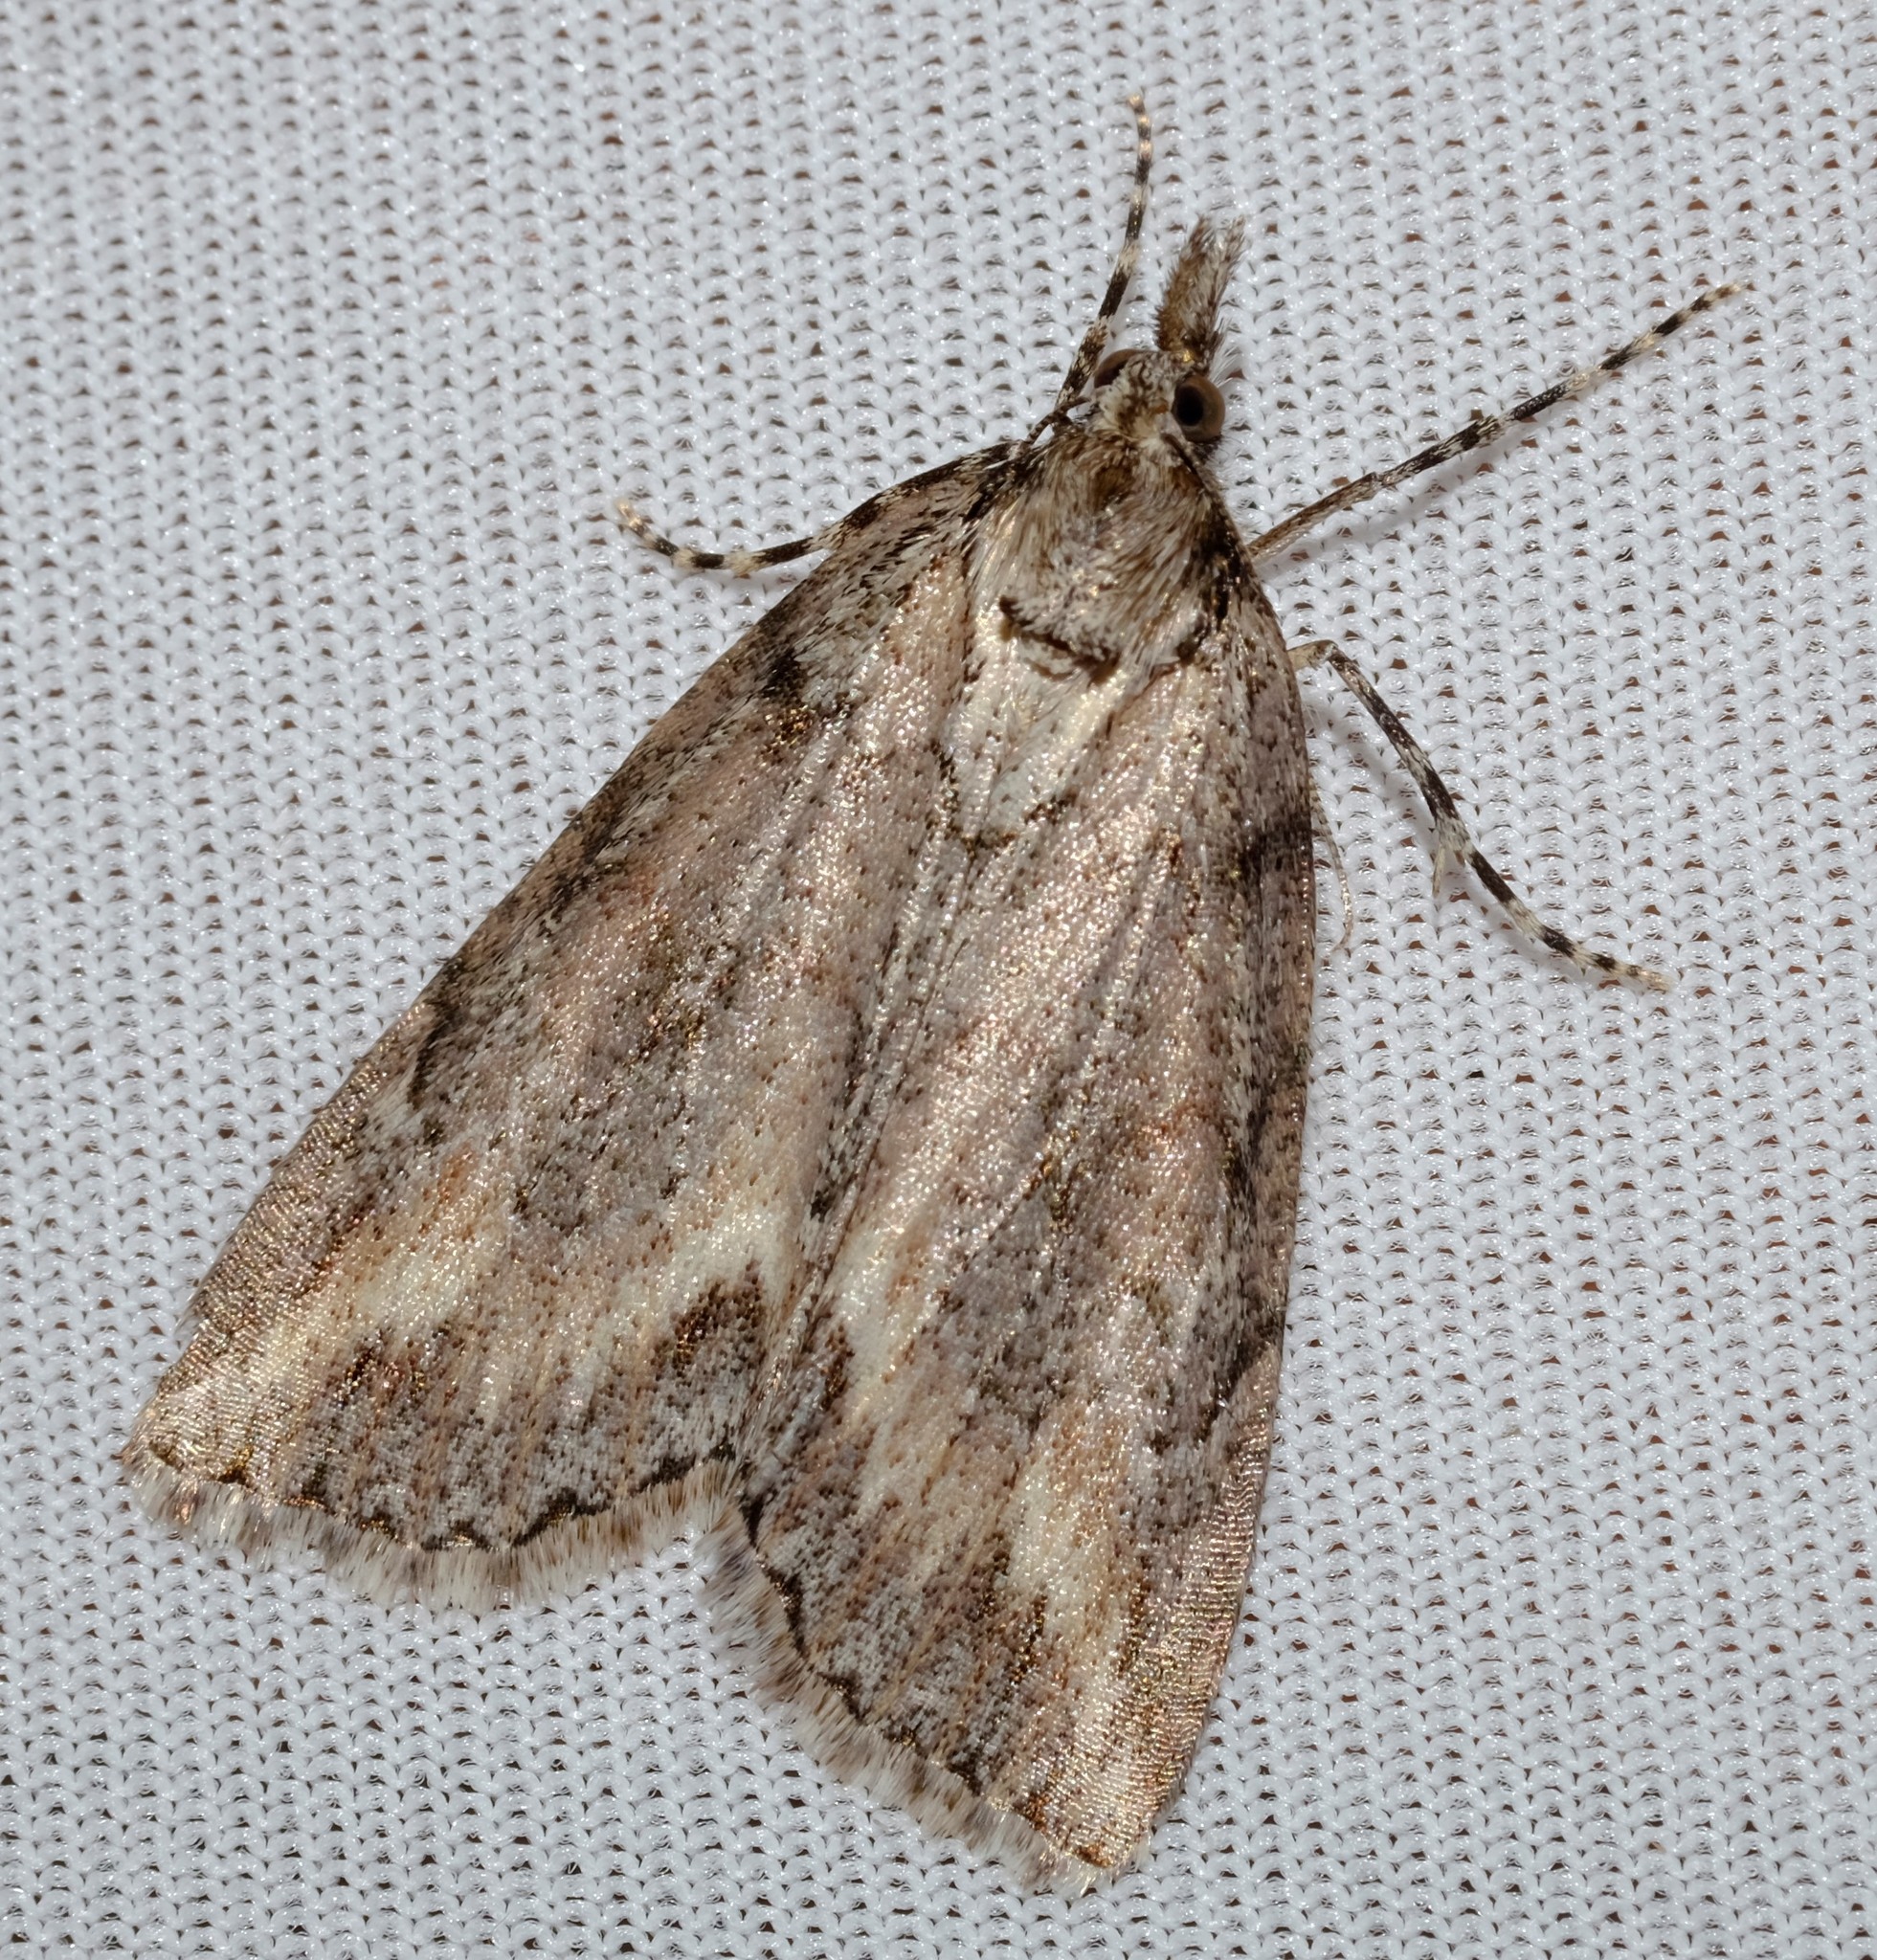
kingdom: Animalia
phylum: Arthropoda
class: Insecta
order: Lepidoptera
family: Geometridae
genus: Mictodoca
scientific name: Mictodoca toxeuta
